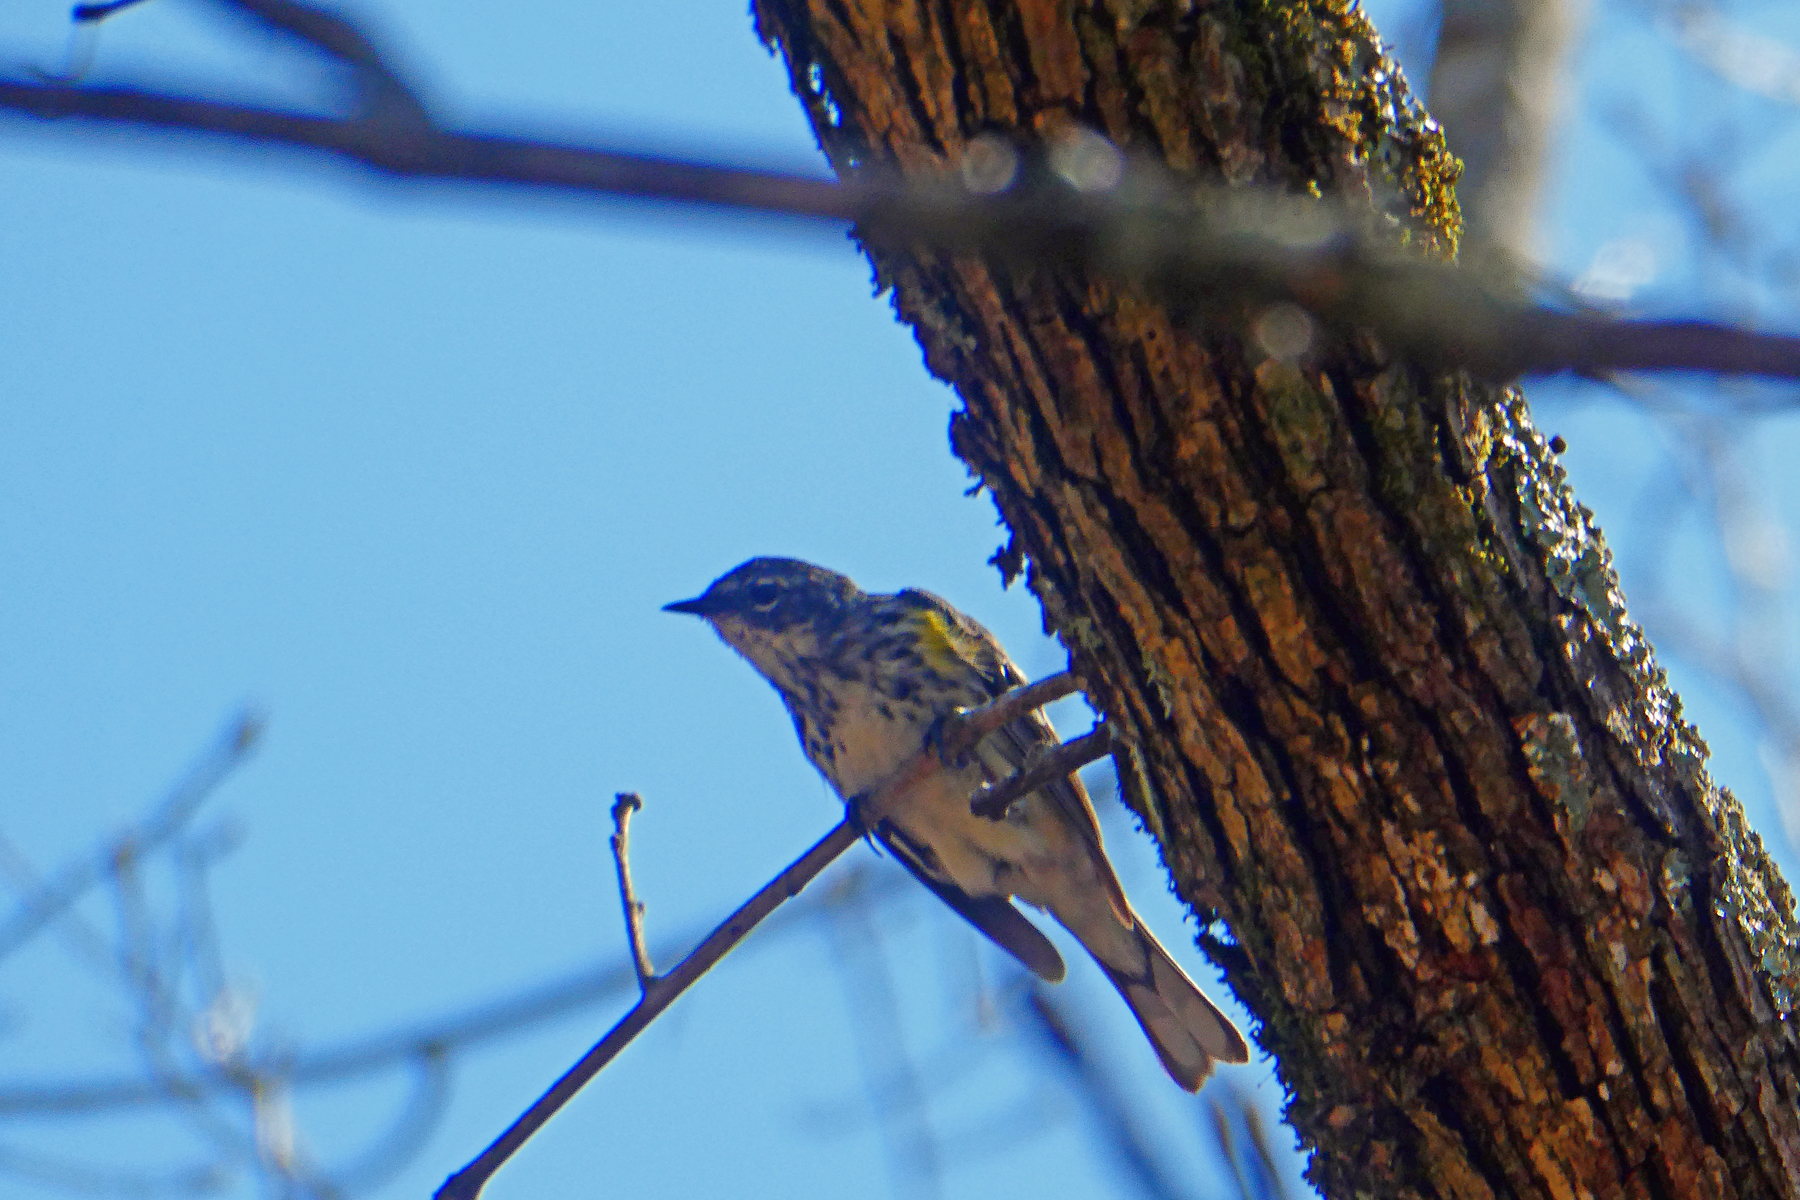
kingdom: Animalia
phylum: Chordata
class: Aves
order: Passeriformes
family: Parulidae
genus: Setophaga
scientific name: Setophaga coronata
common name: Myrtle warbler
